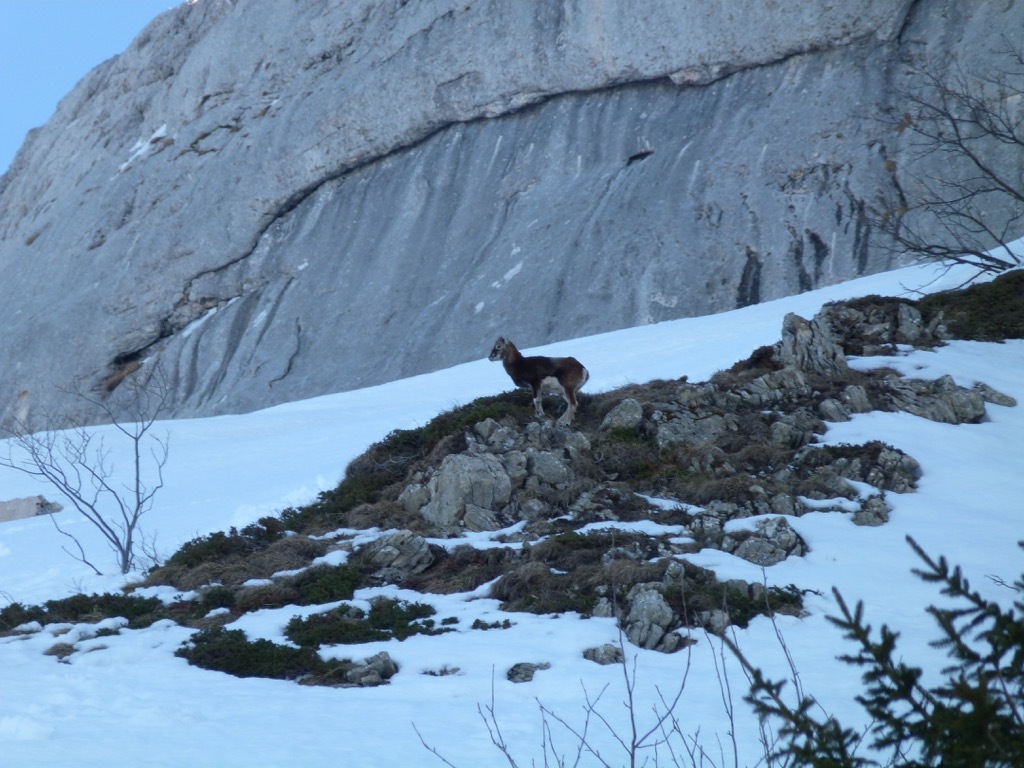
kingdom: Animalia
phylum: Chordata
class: Mammalia
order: Artiodactyla
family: Bovidae
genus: Ovis
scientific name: Ovis aries
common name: Domestic sheep
